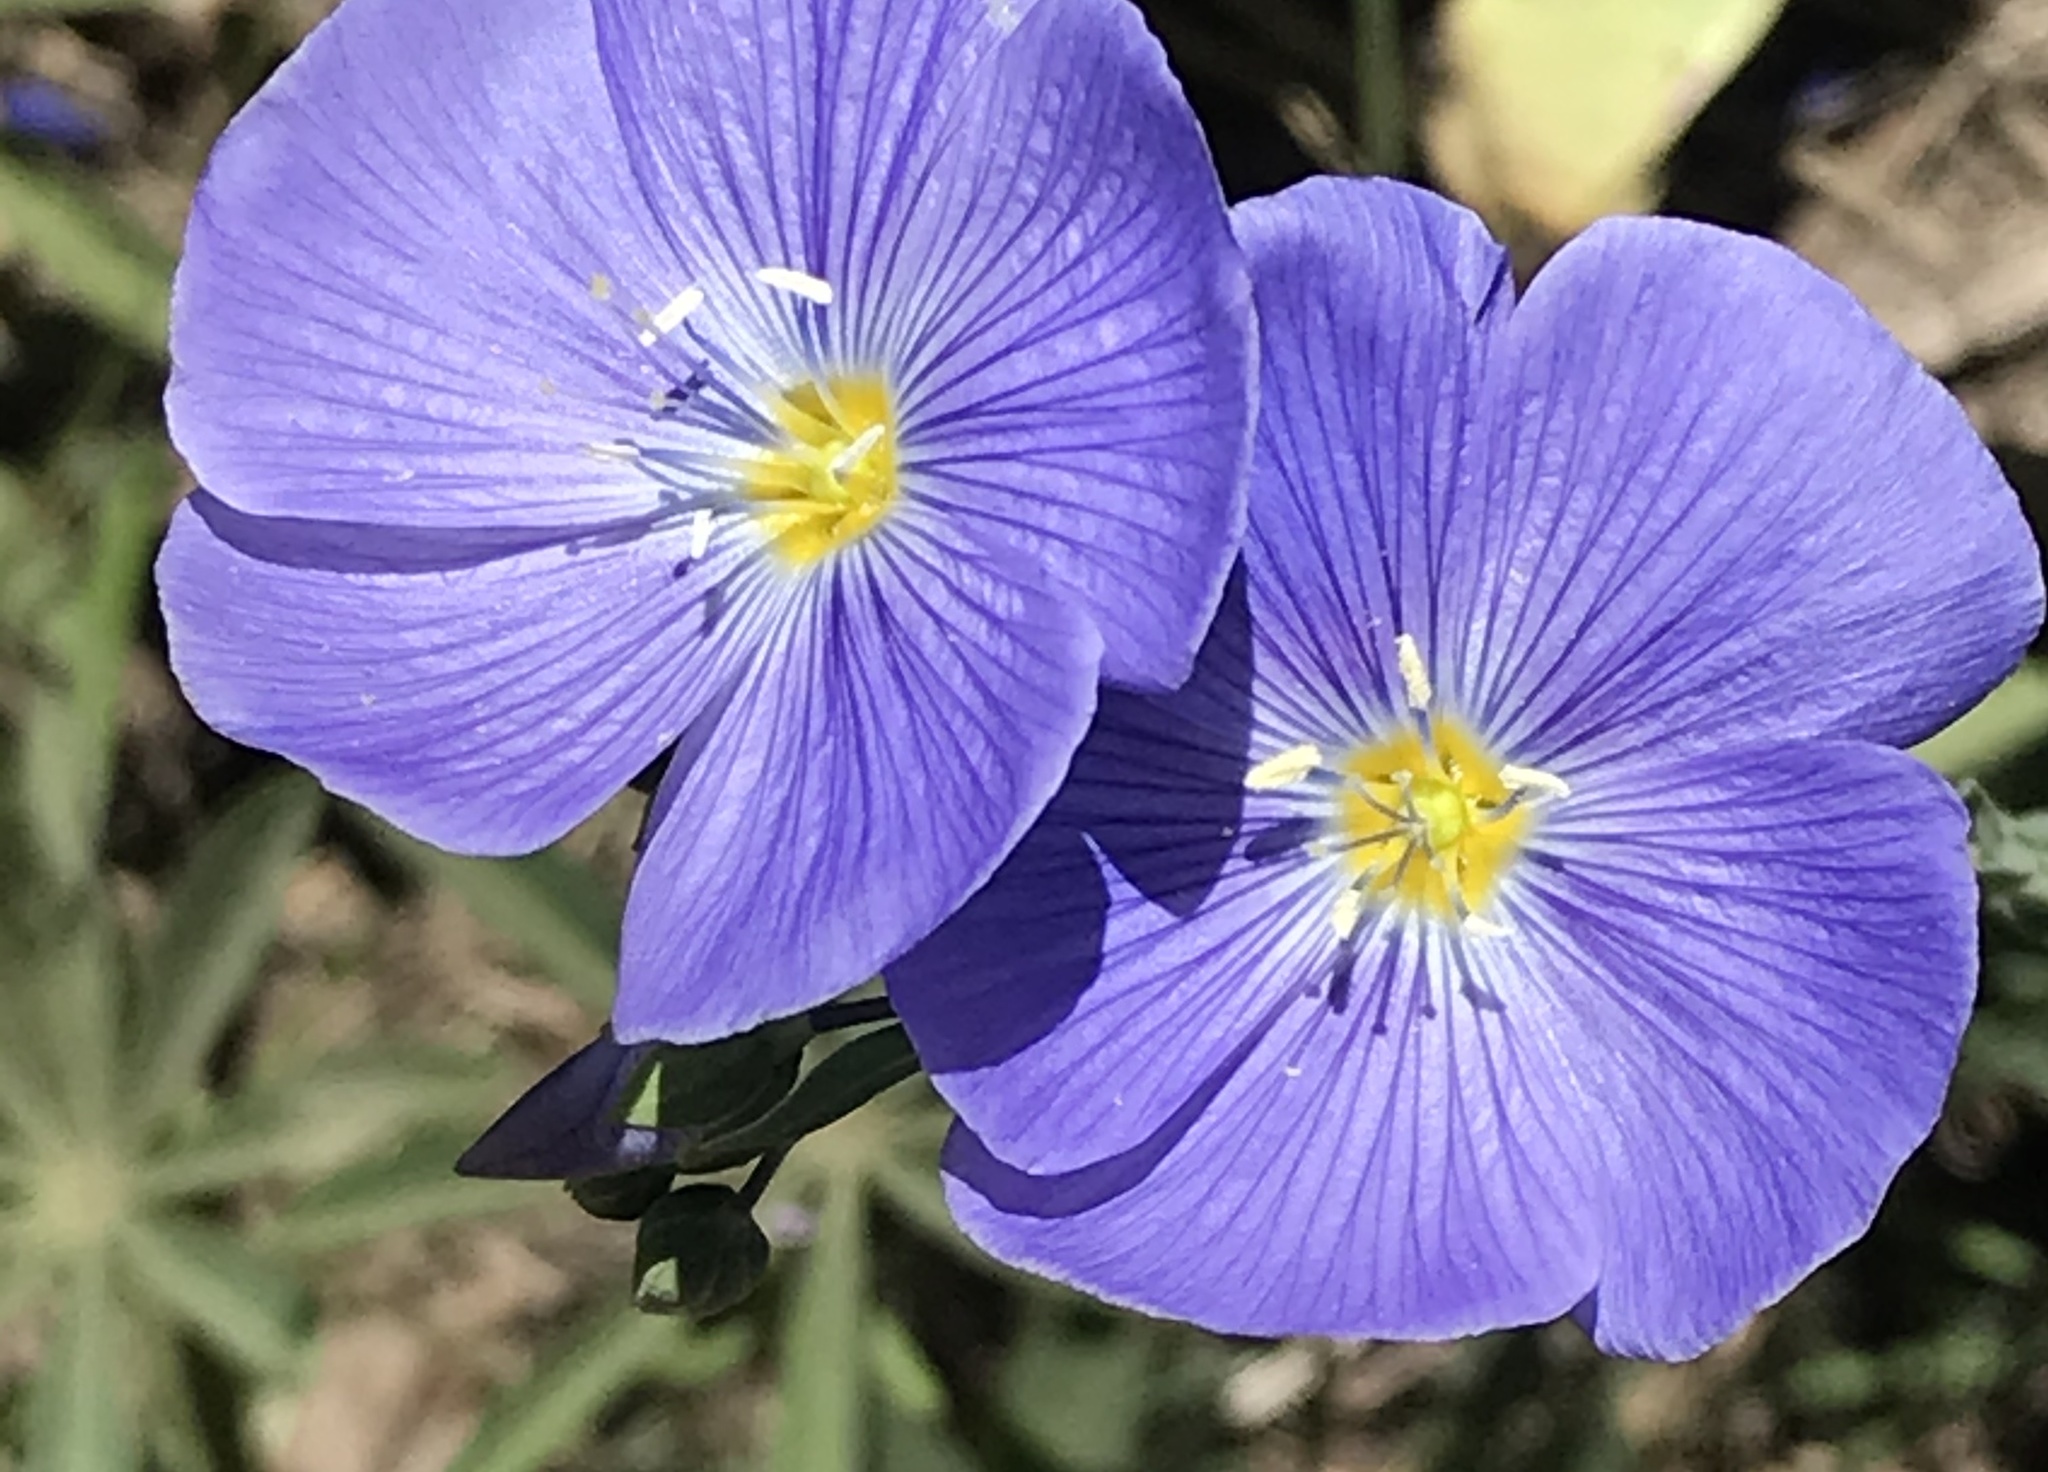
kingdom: Plantae
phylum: Tracheophyta
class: Magnoliopsida
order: Malpighiales
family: Linaceae
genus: Linum
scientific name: Linum lewisii
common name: Prairie flax
